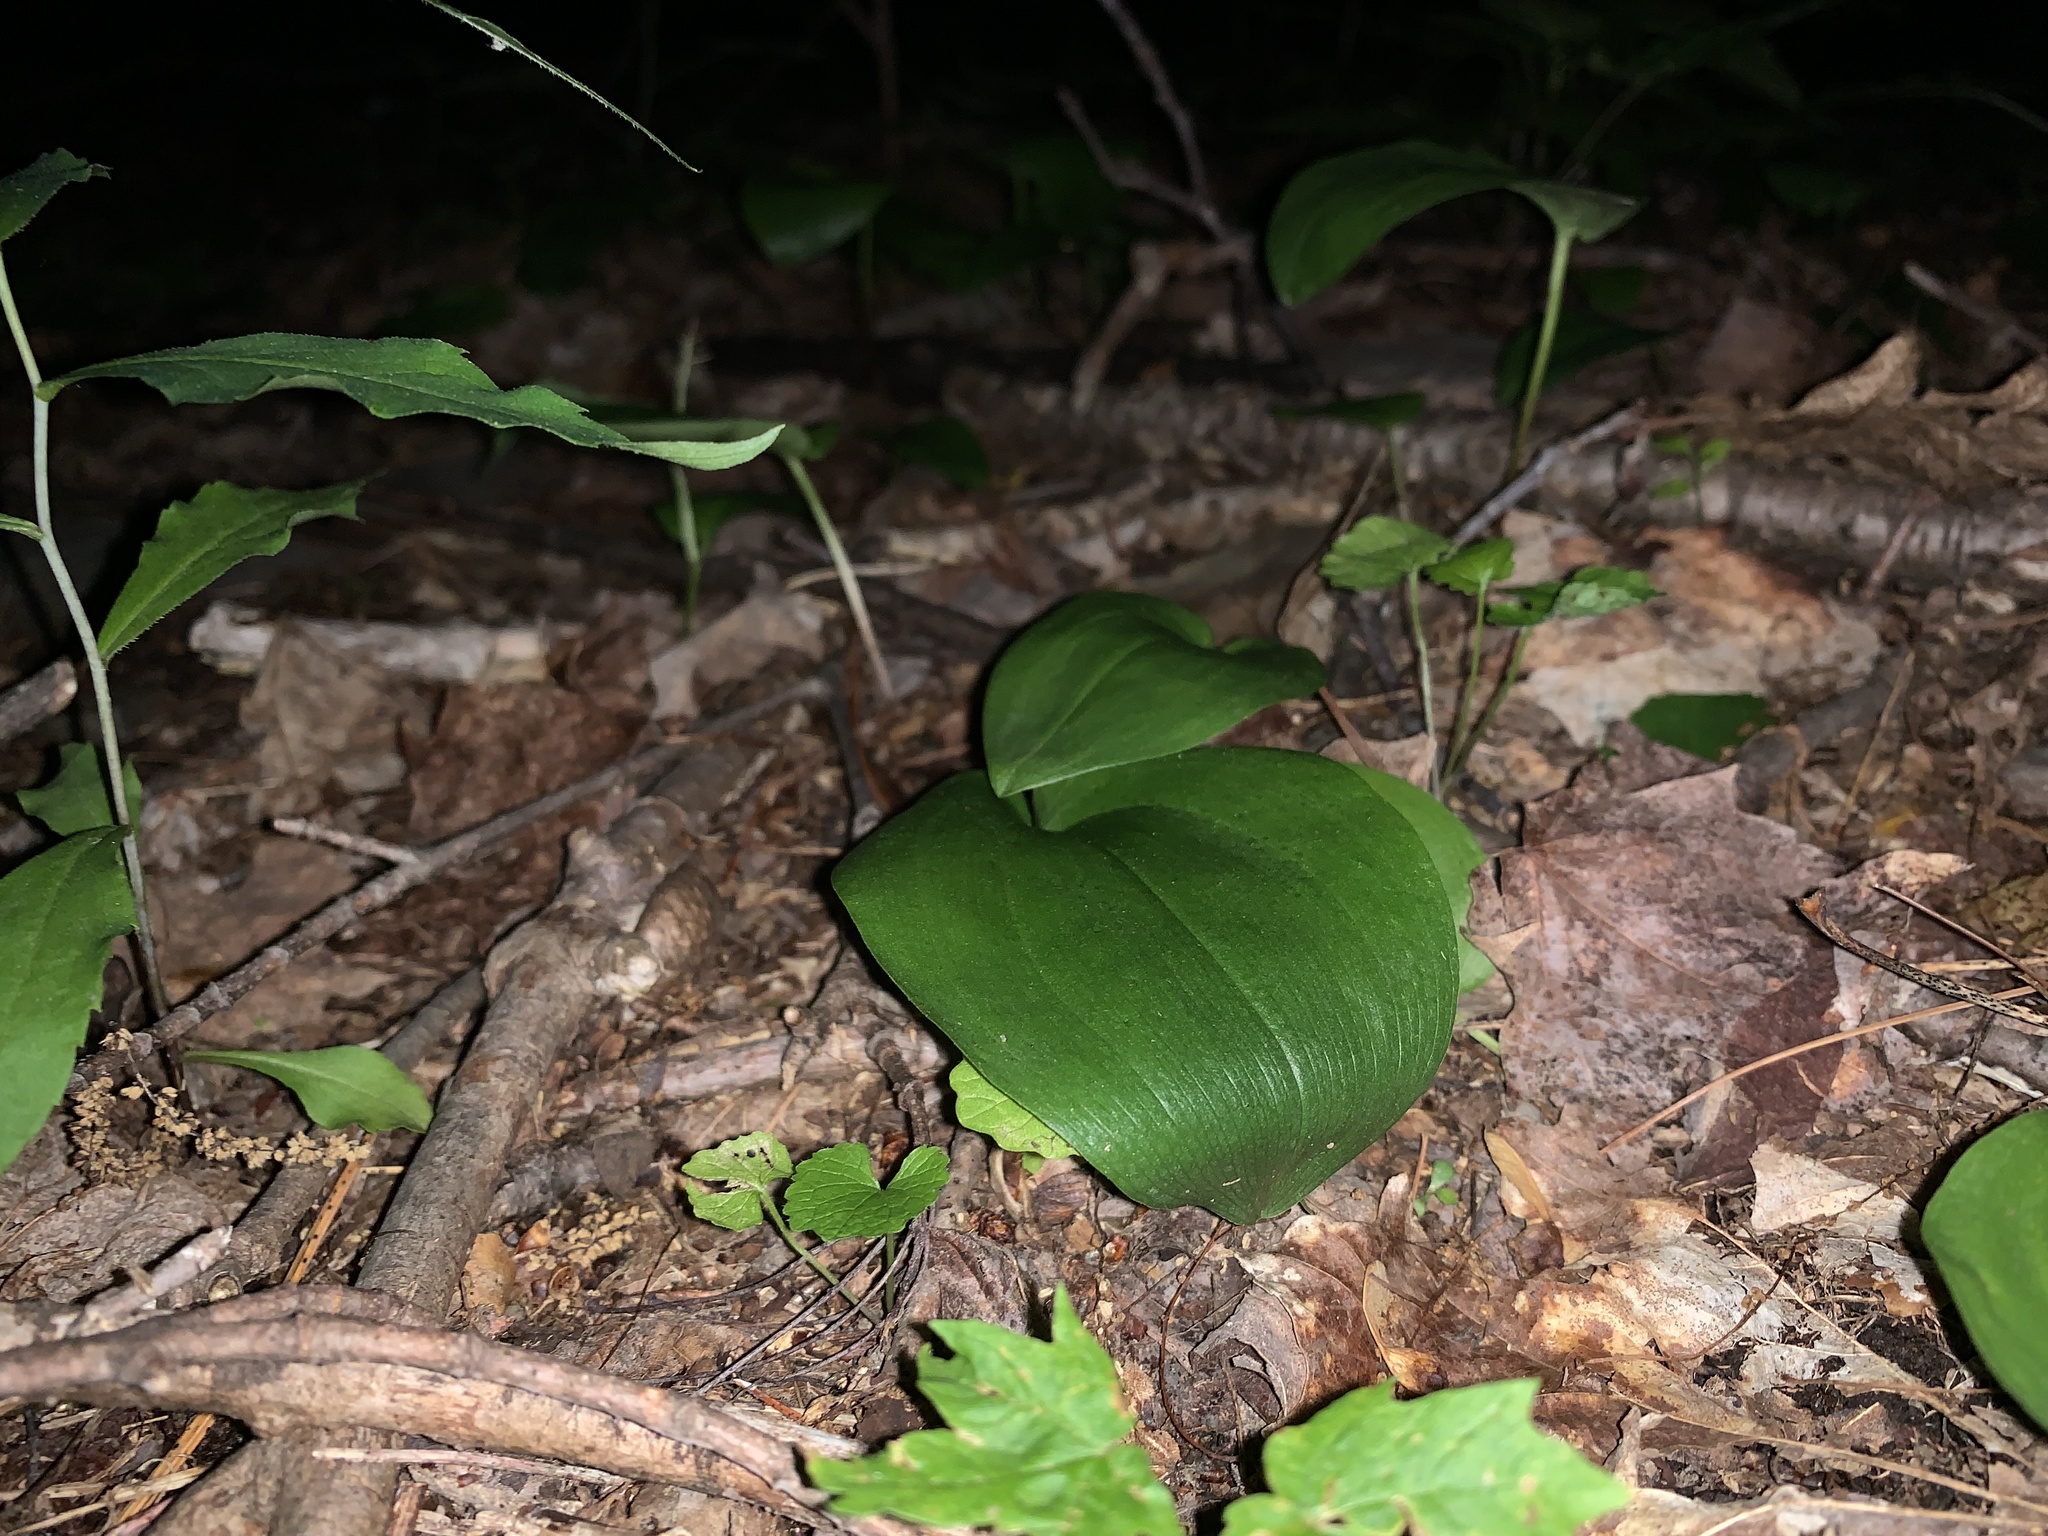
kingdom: Plantae
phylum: Tracheophyta
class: Liliopsida
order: Asparagales
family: Asparagaceae
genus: Maianthemum
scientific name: Maianthemum canadense
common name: False lily-of-the-valley
